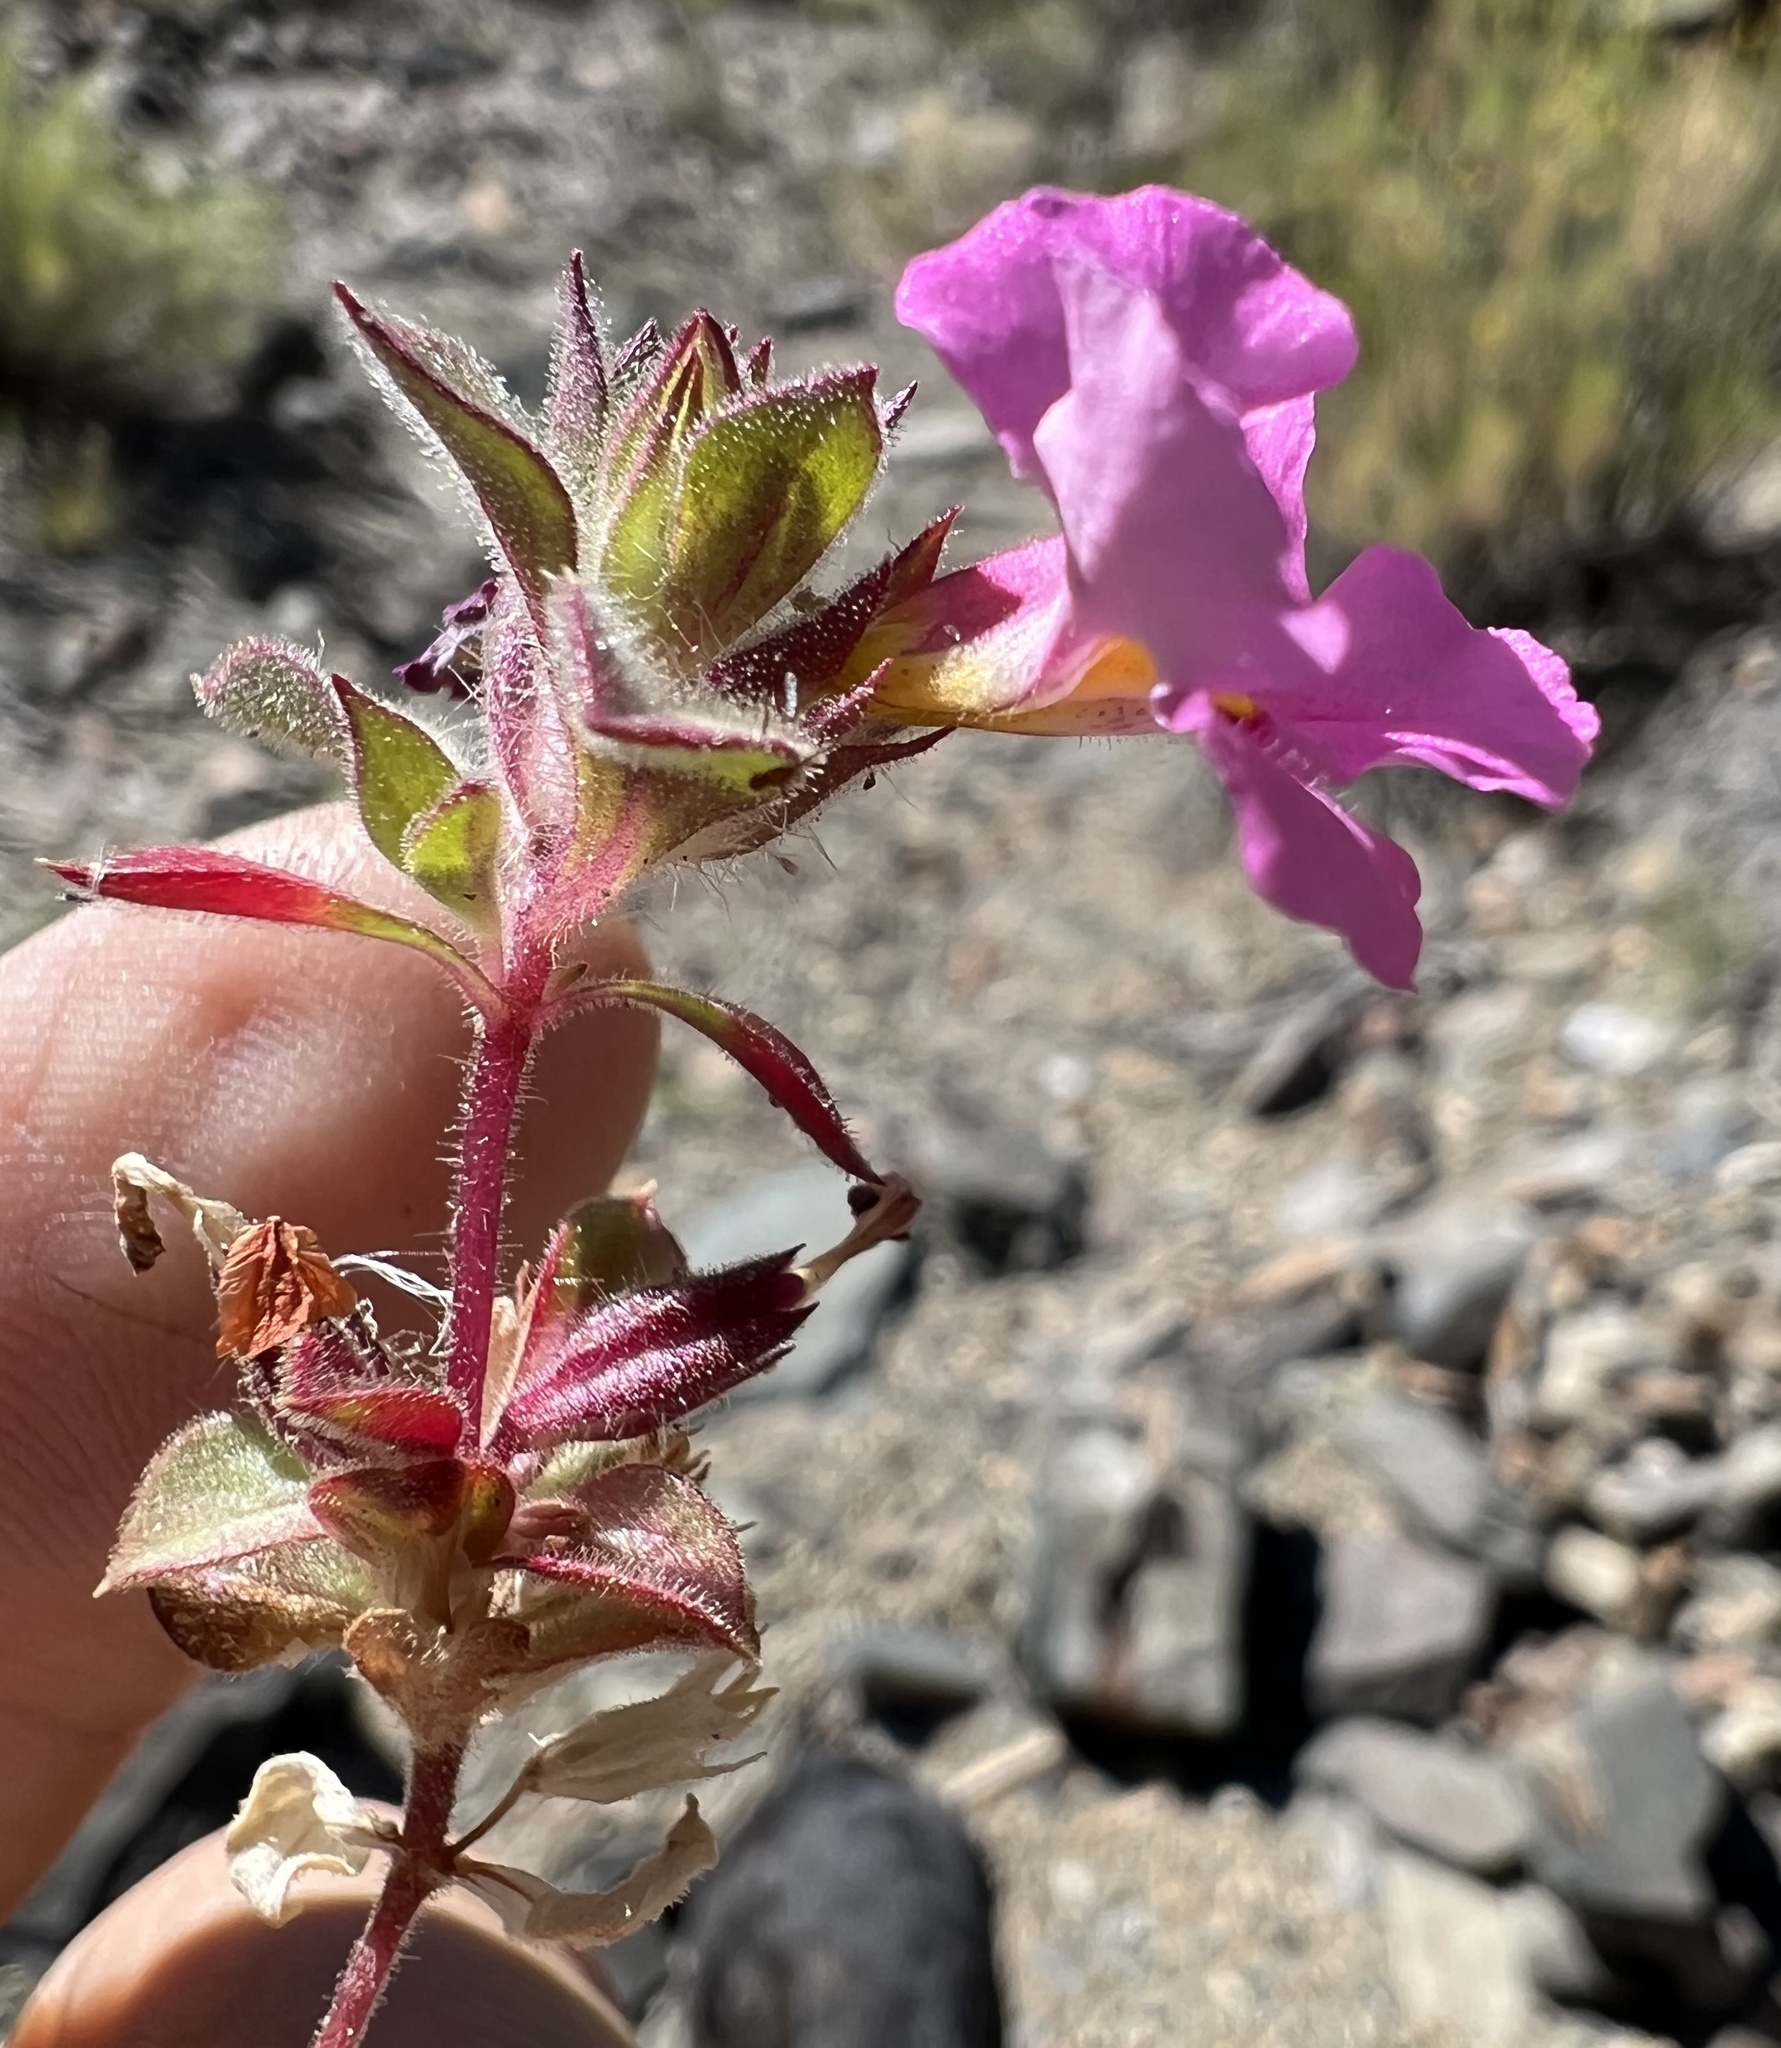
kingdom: Plantae
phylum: Tracheophyta
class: Magnoliopsida
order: Lamiales
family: Phrymaceae
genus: Diplacus
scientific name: Diplacus bigelovii
